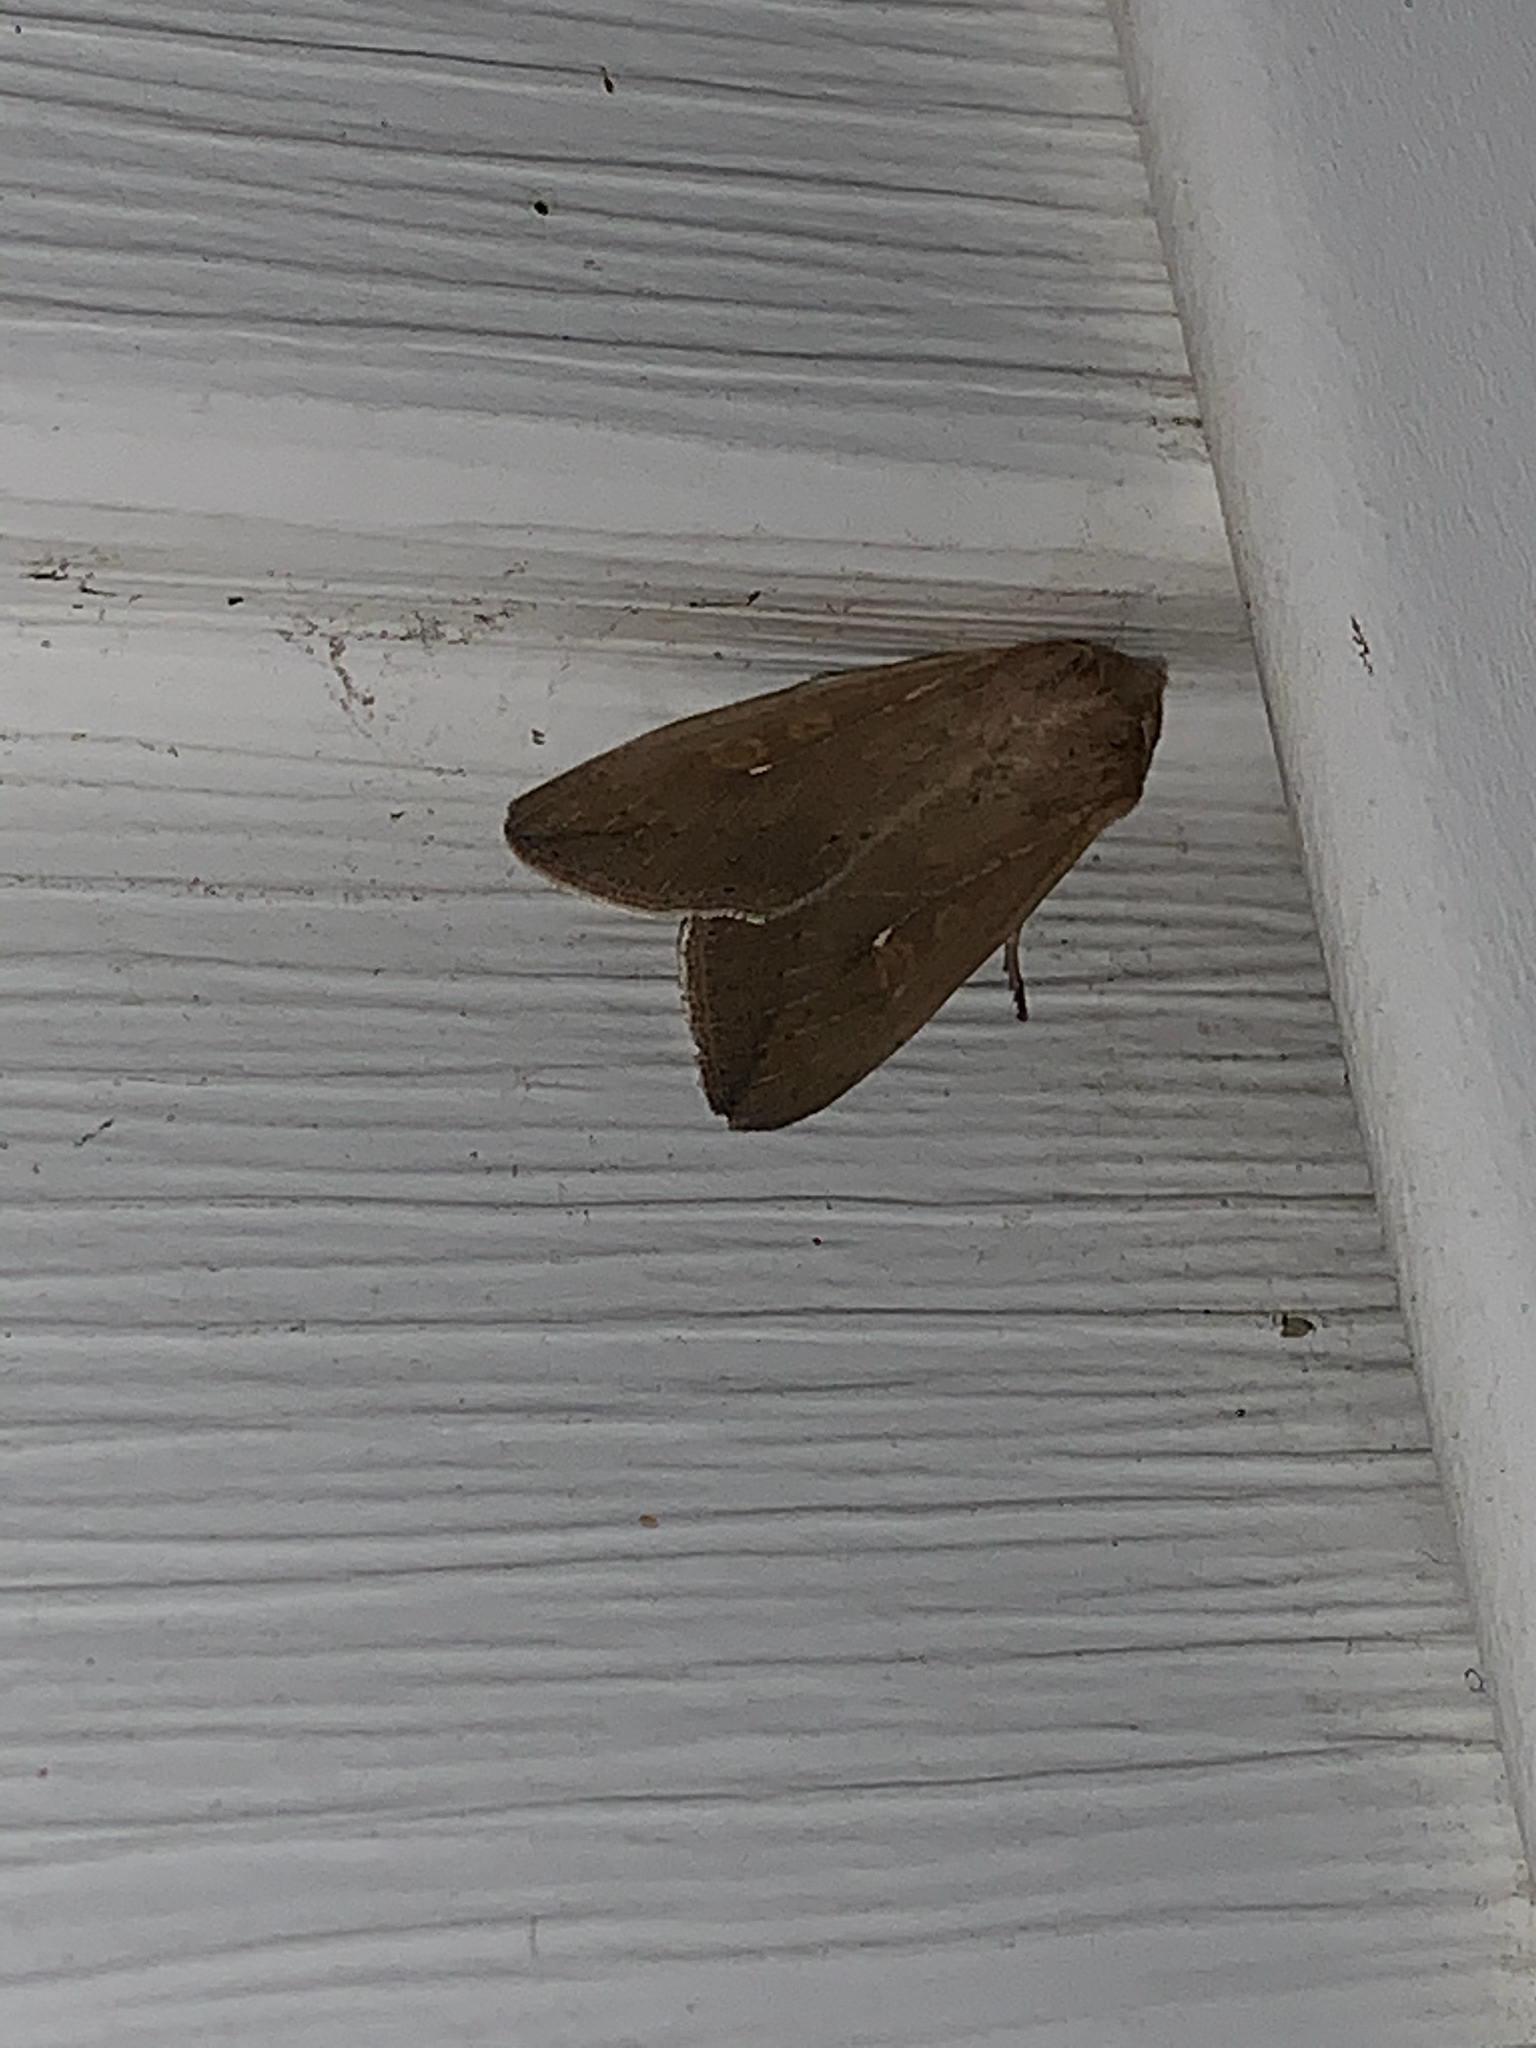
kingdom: Animalia
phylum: Arthropoda
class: Insecta
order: Lepidoptera
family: Noctuidae
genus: Mythimna
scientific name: Mythimna unipuncta
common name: White-speck
